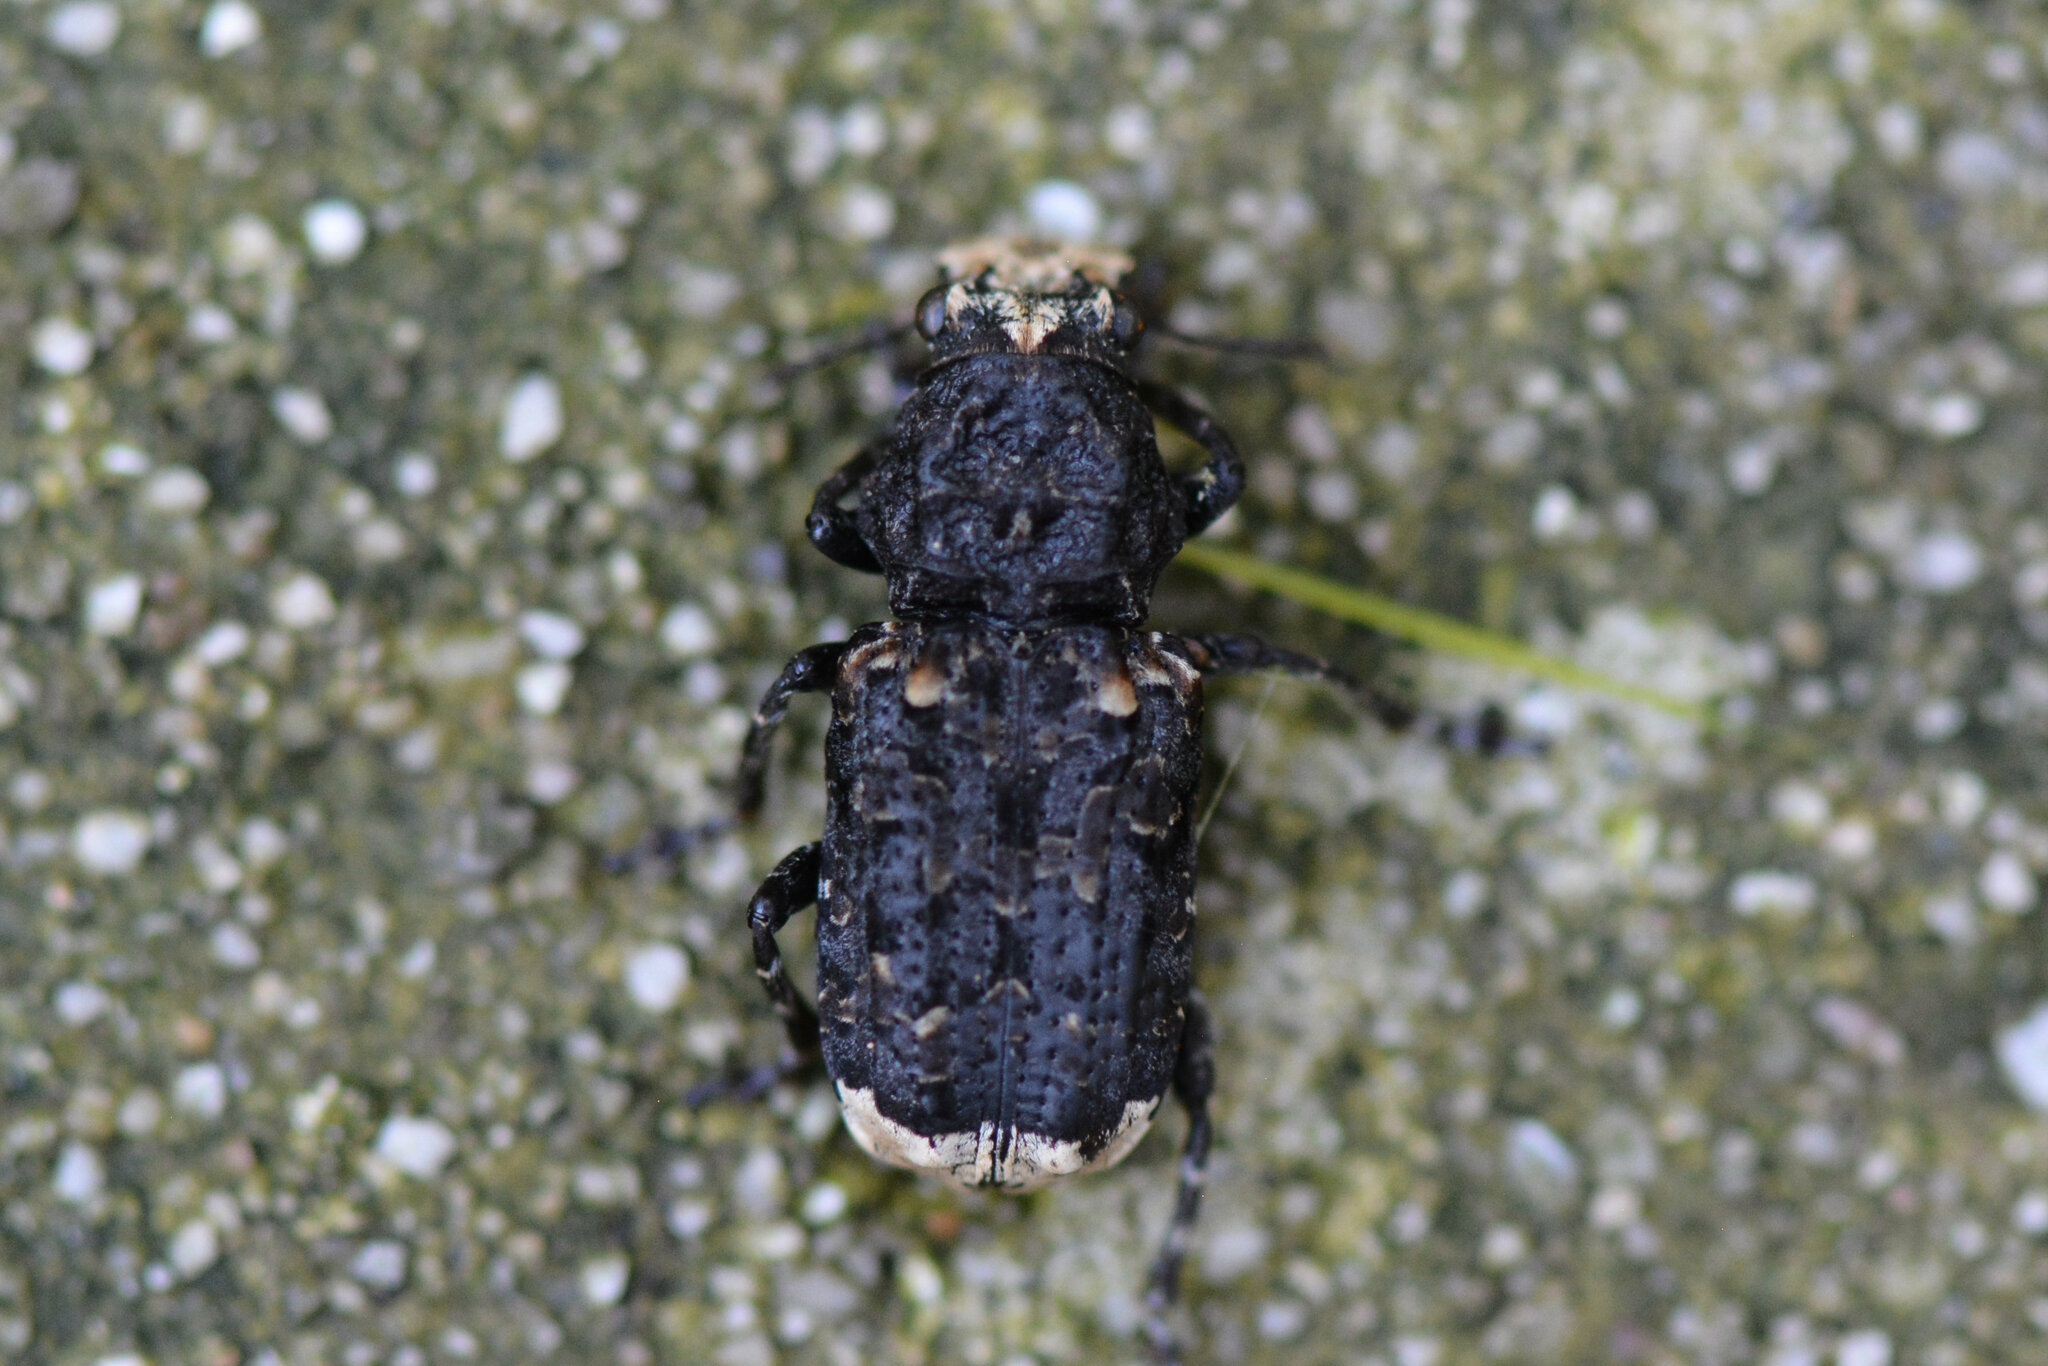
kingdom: Animalia
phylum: Arthropoda
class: Insecta
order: Coleoptera
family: Anthribidae
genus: Platyrhinus
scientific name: Platyrhinus resinosus
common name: Cramp-ball fungus weevil
